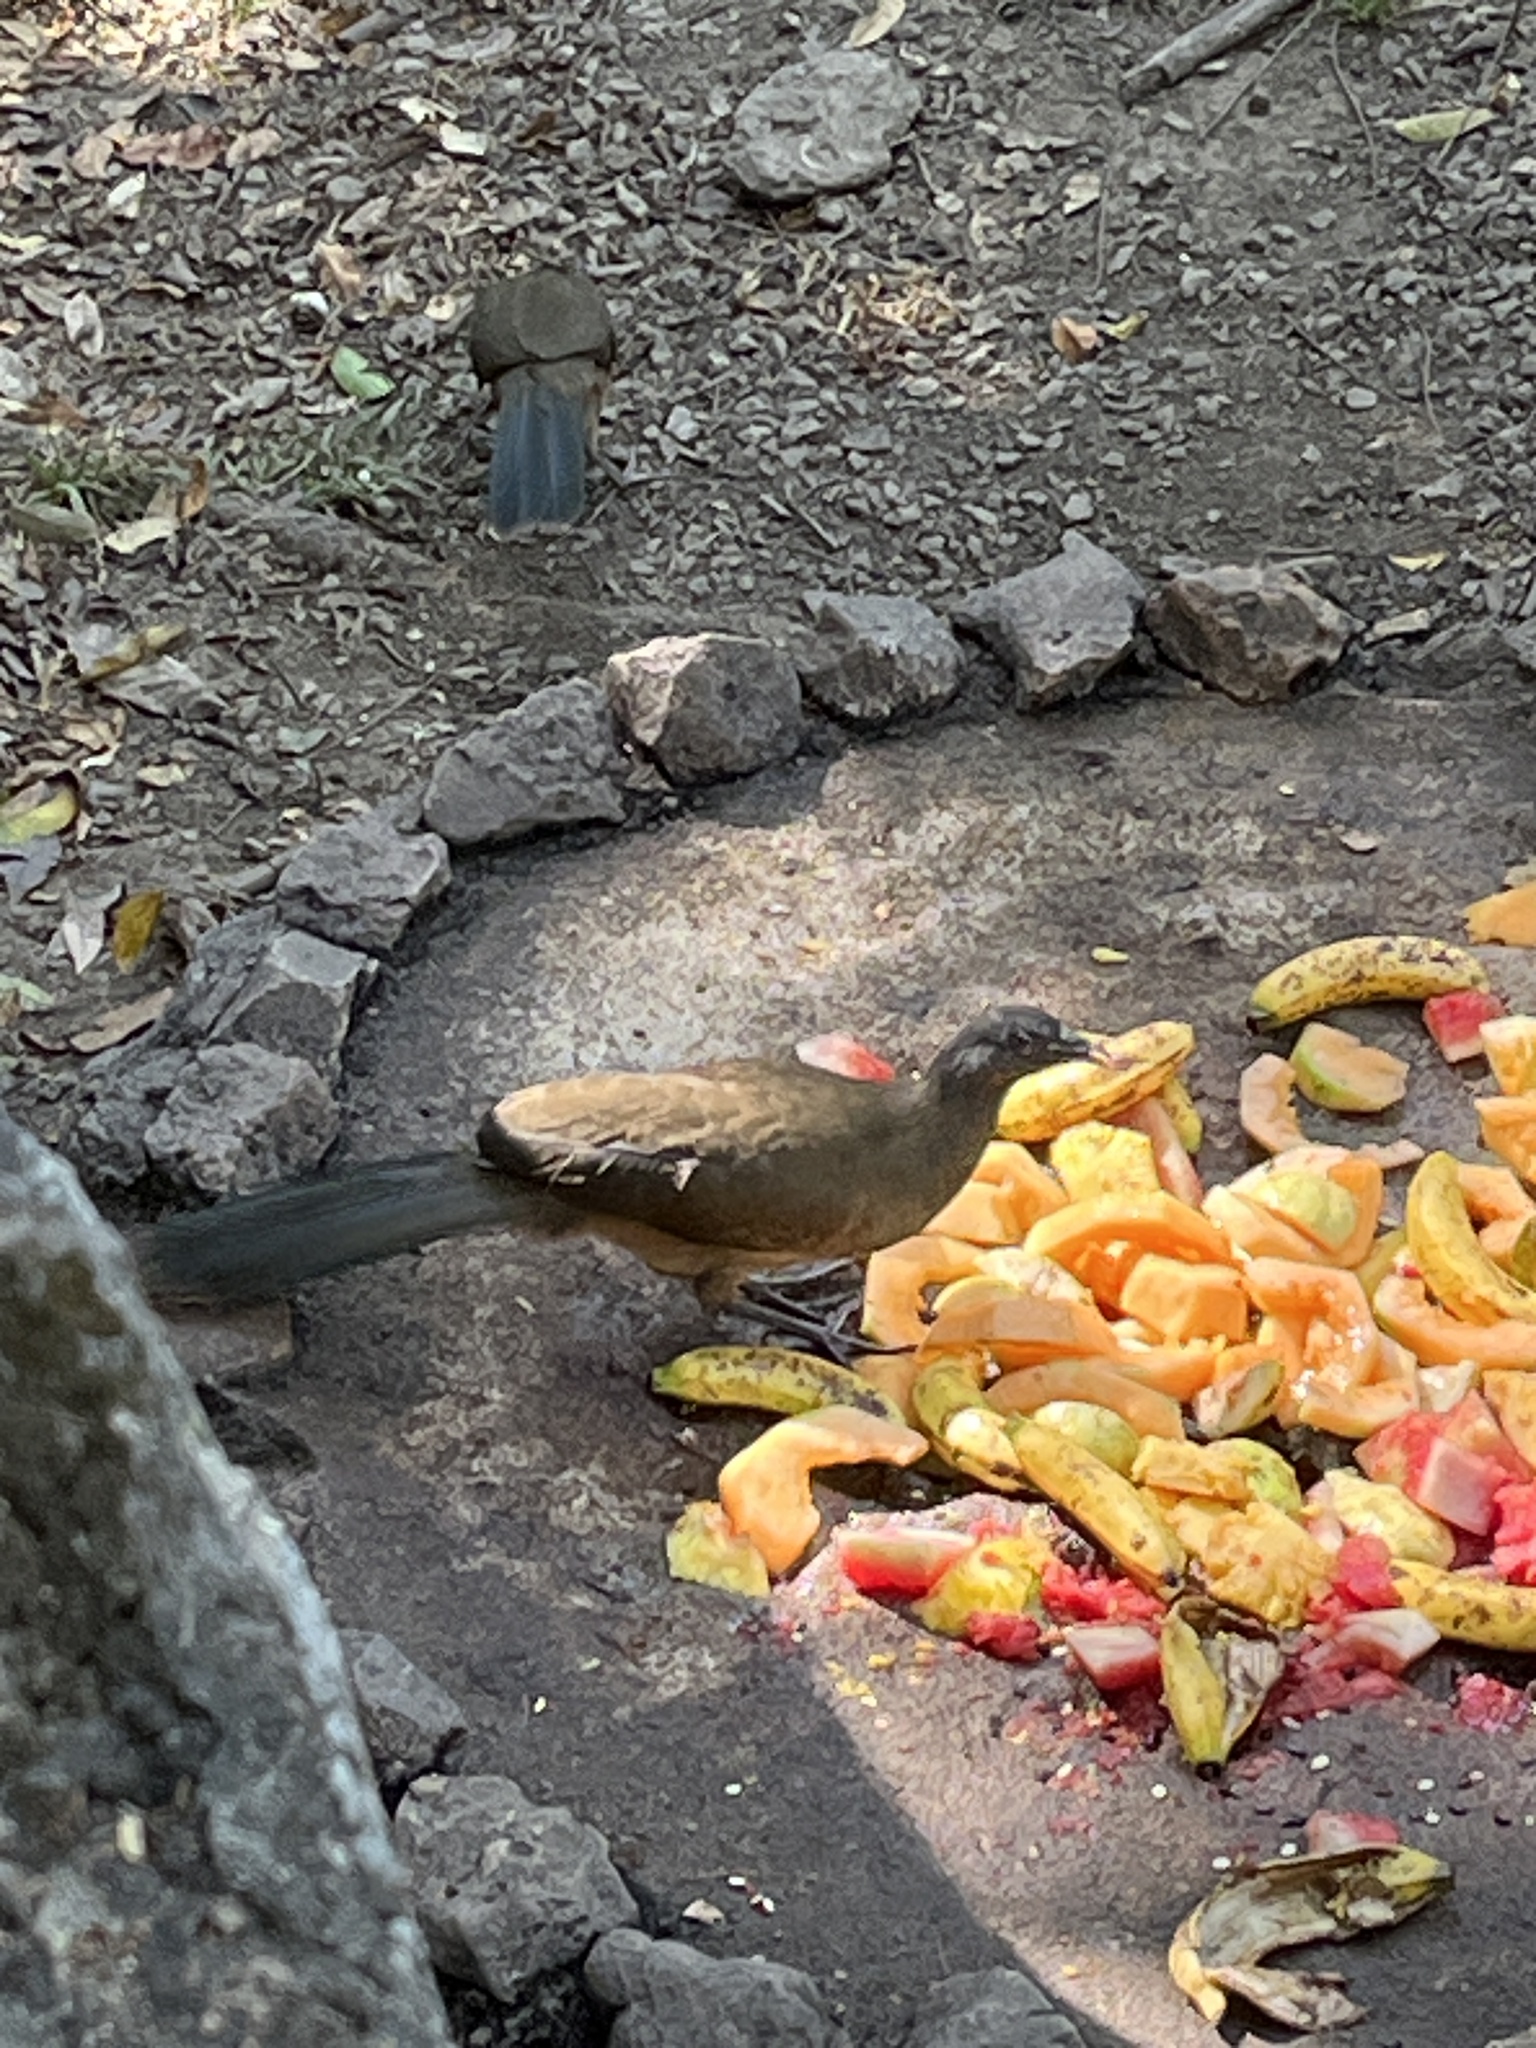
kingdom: Animalia
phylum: Chordata
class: Aves
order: Galliformes
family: Cracidae
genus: Ortalis
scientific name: Ortalis vetula
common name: Plain chachalaca
